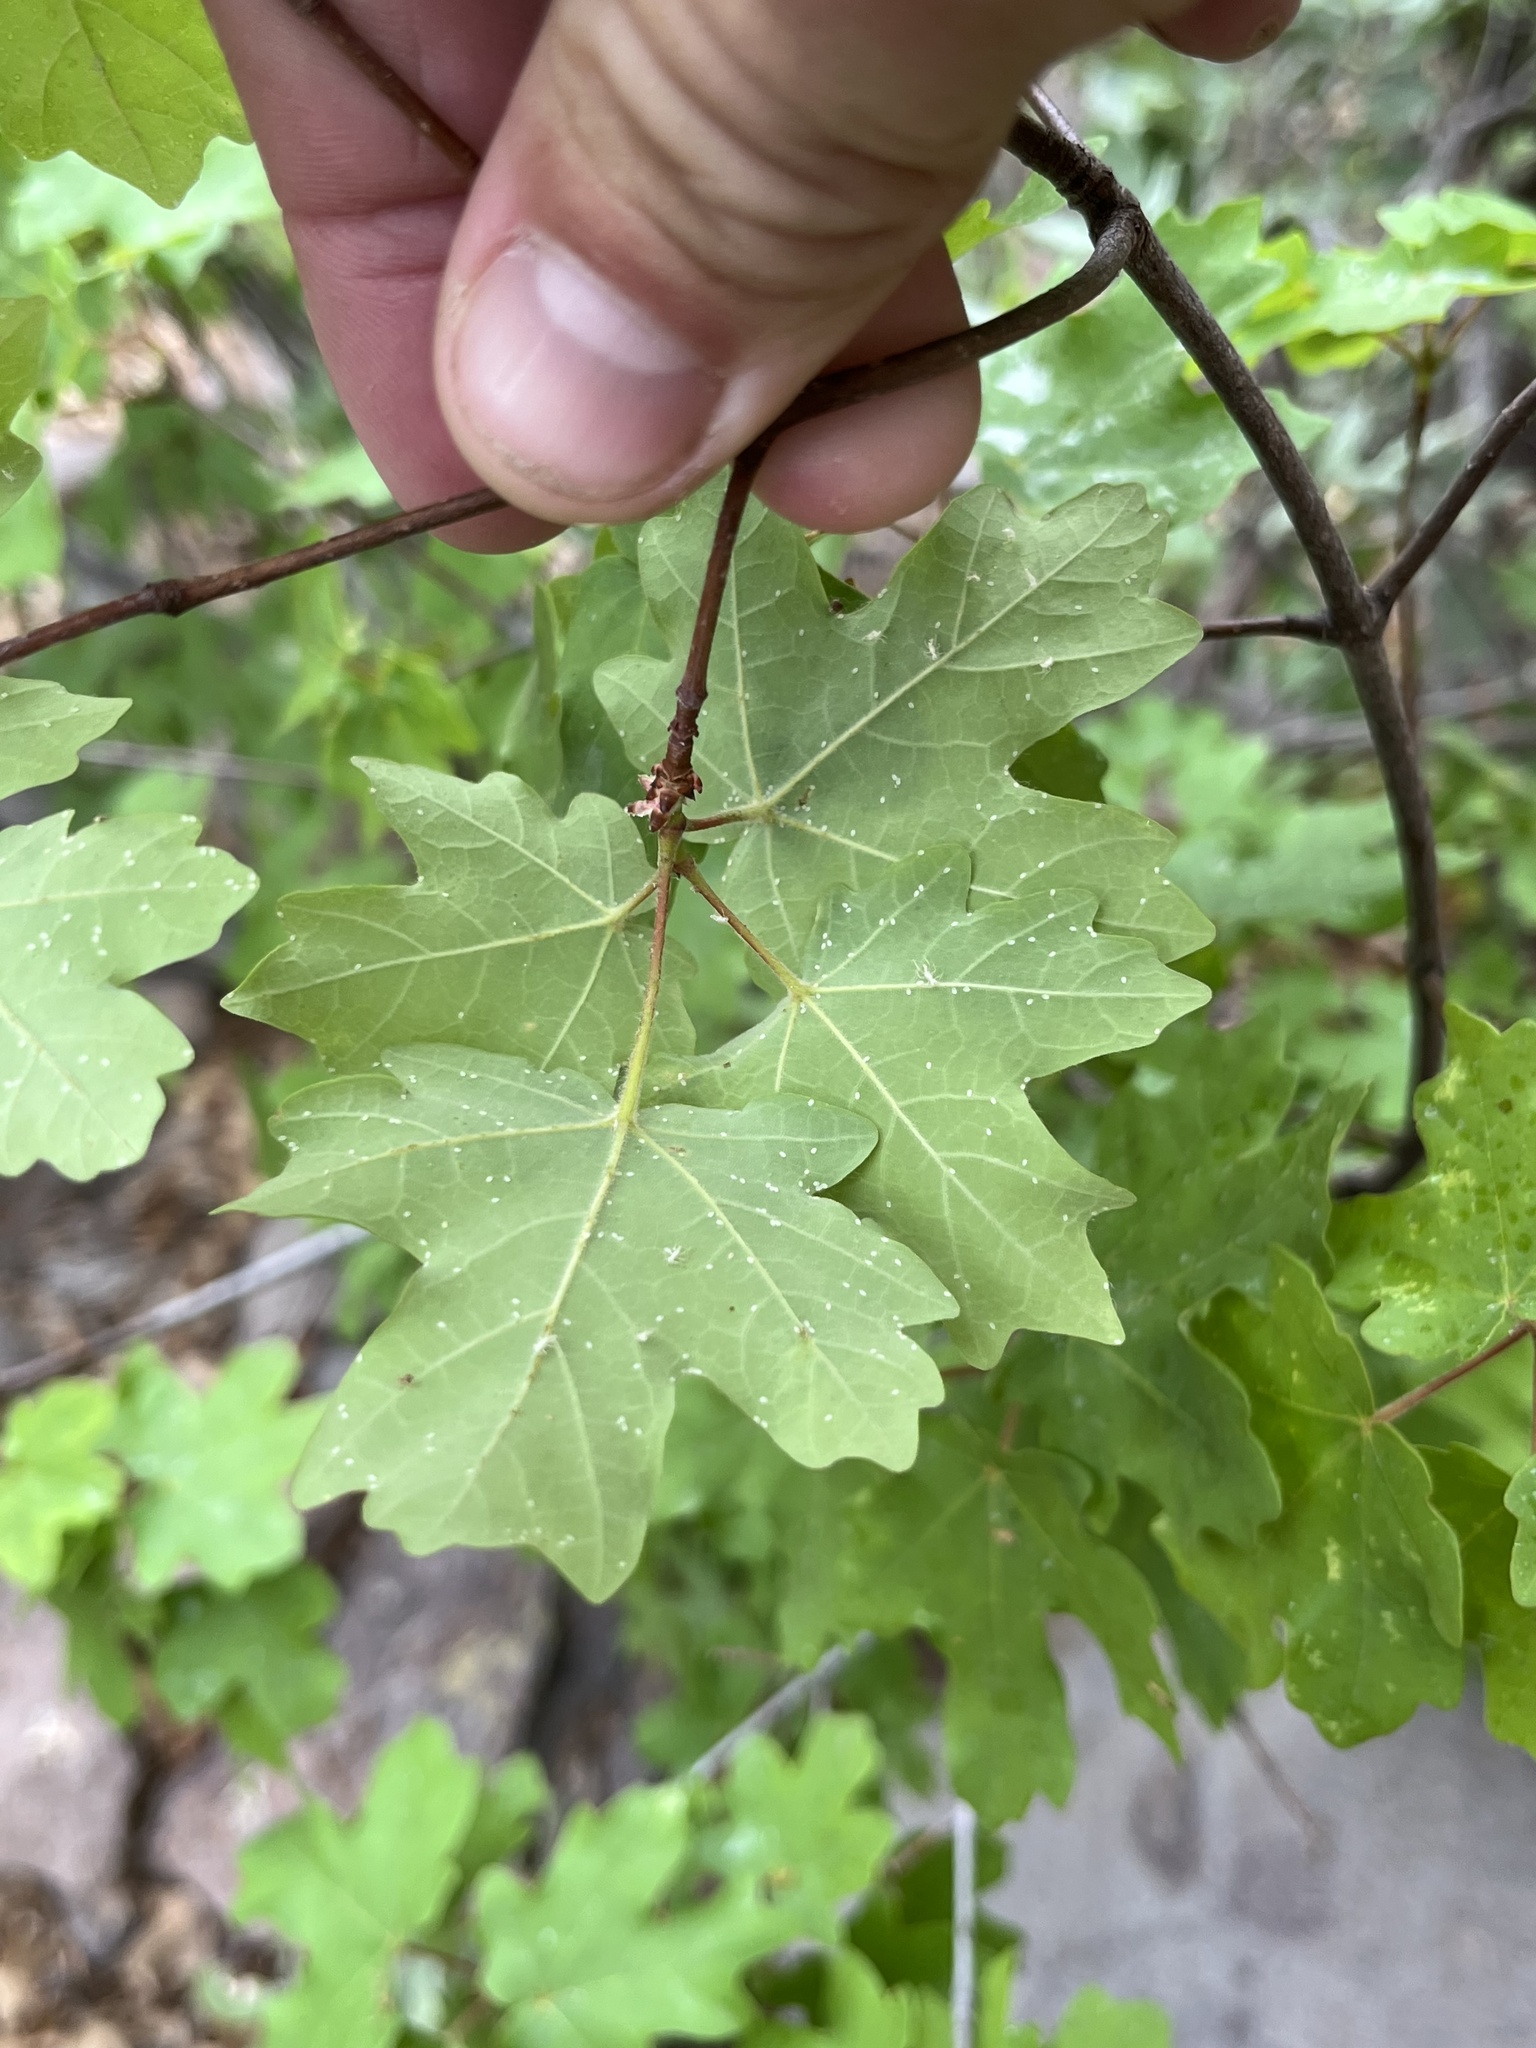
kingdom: Plantae
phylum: Tracheophyta
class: Magnoliopsida
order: Sapindales
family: Sapindaceae
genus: Acer
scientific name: Acer grandidentatum
